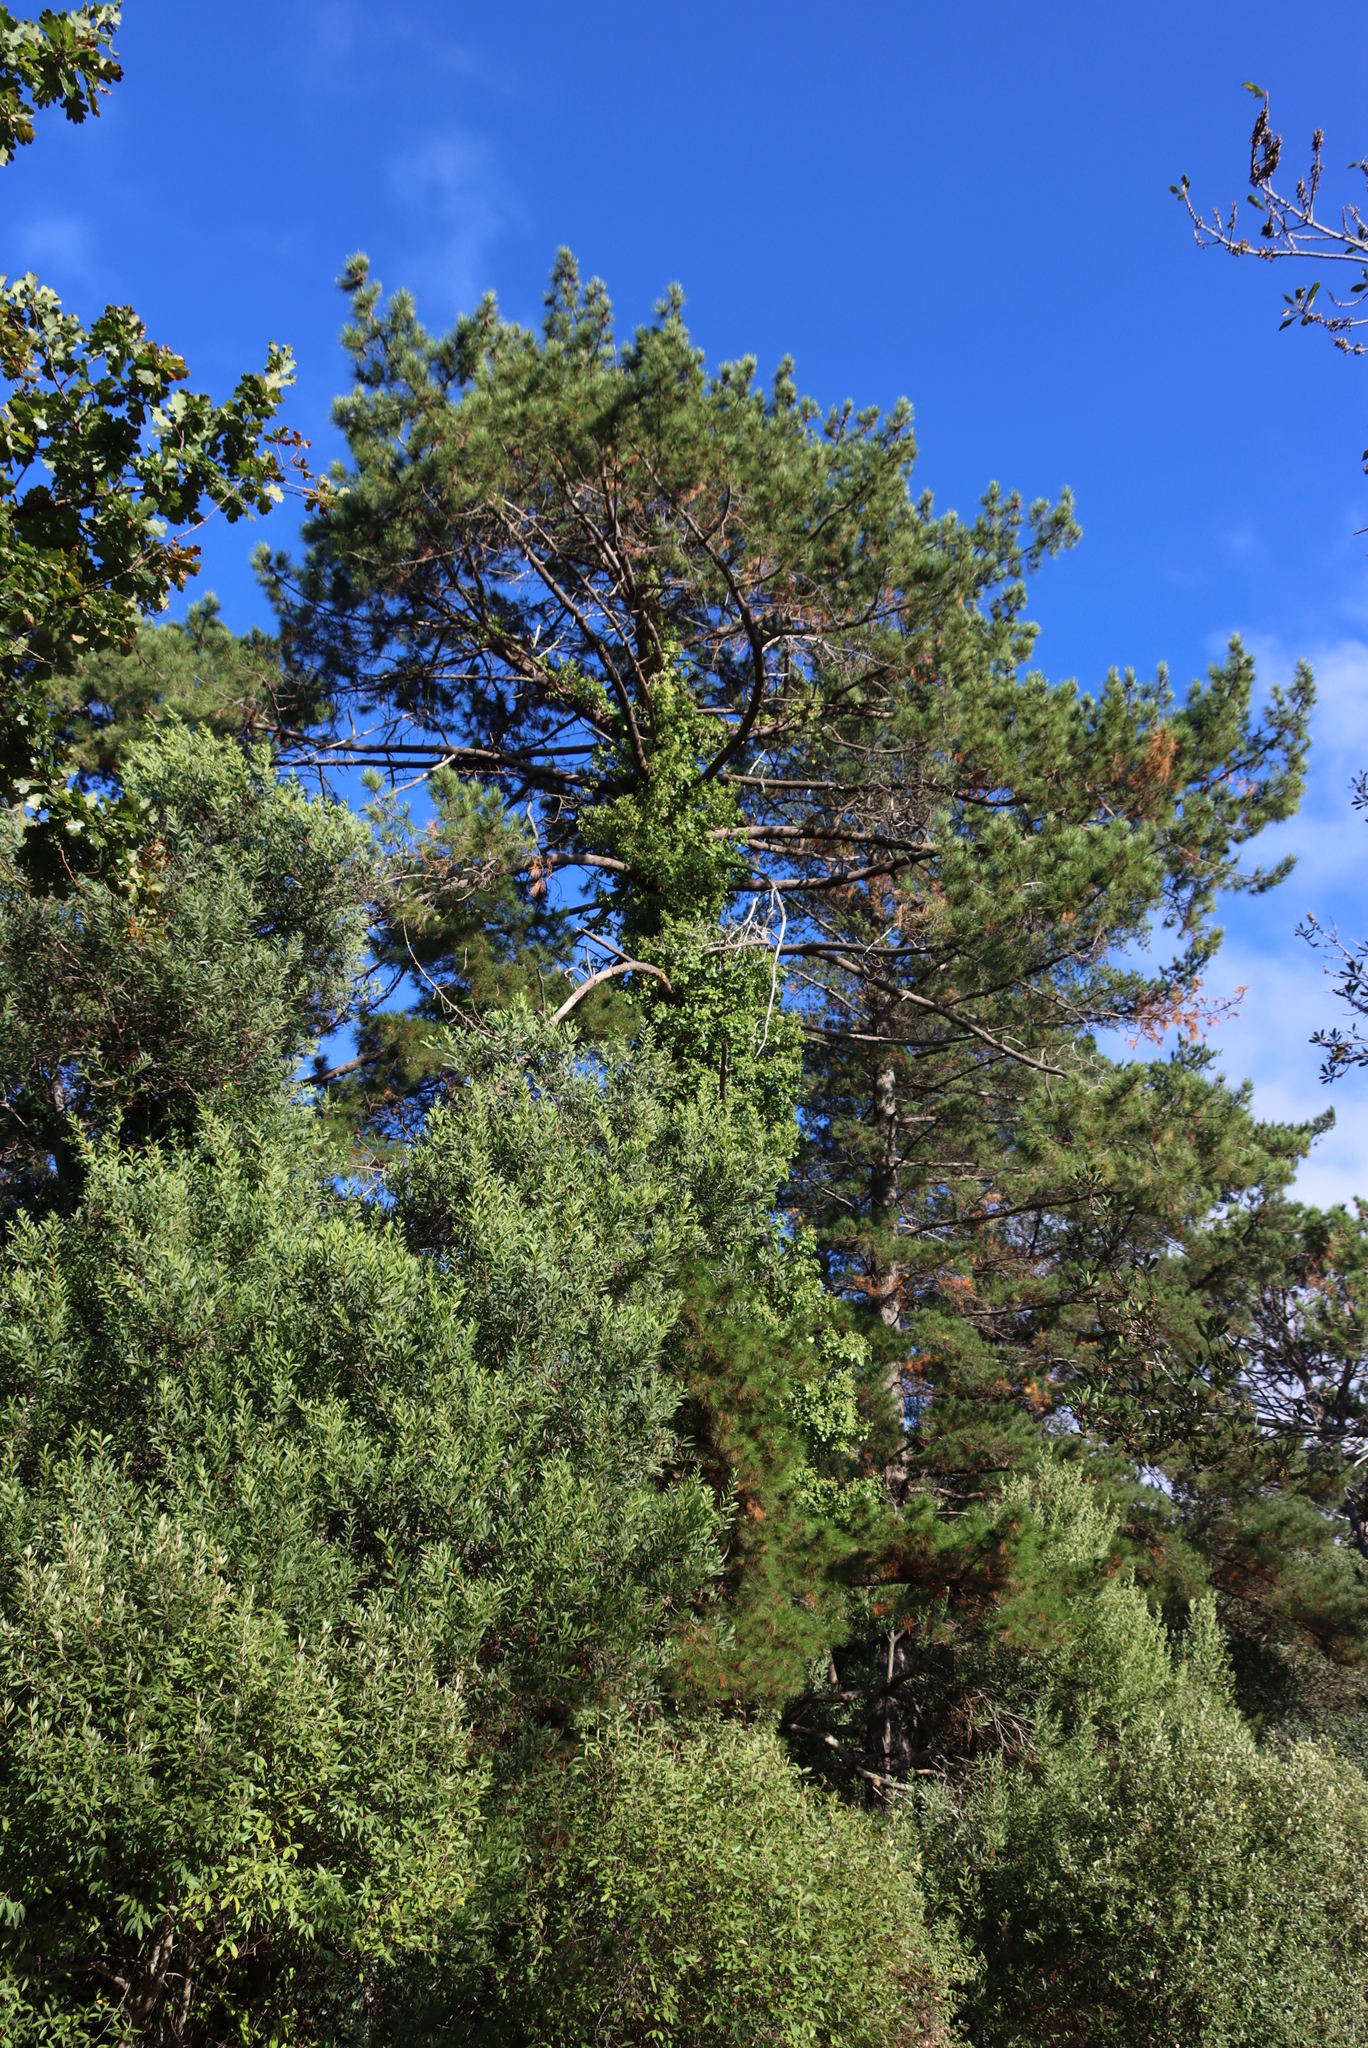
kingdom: Plantae
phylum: Tracheophyta
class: Magnoliopsida
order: Apiales
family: Araliaceae
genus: Hedera
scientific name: Hedera helix
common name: Ivy
